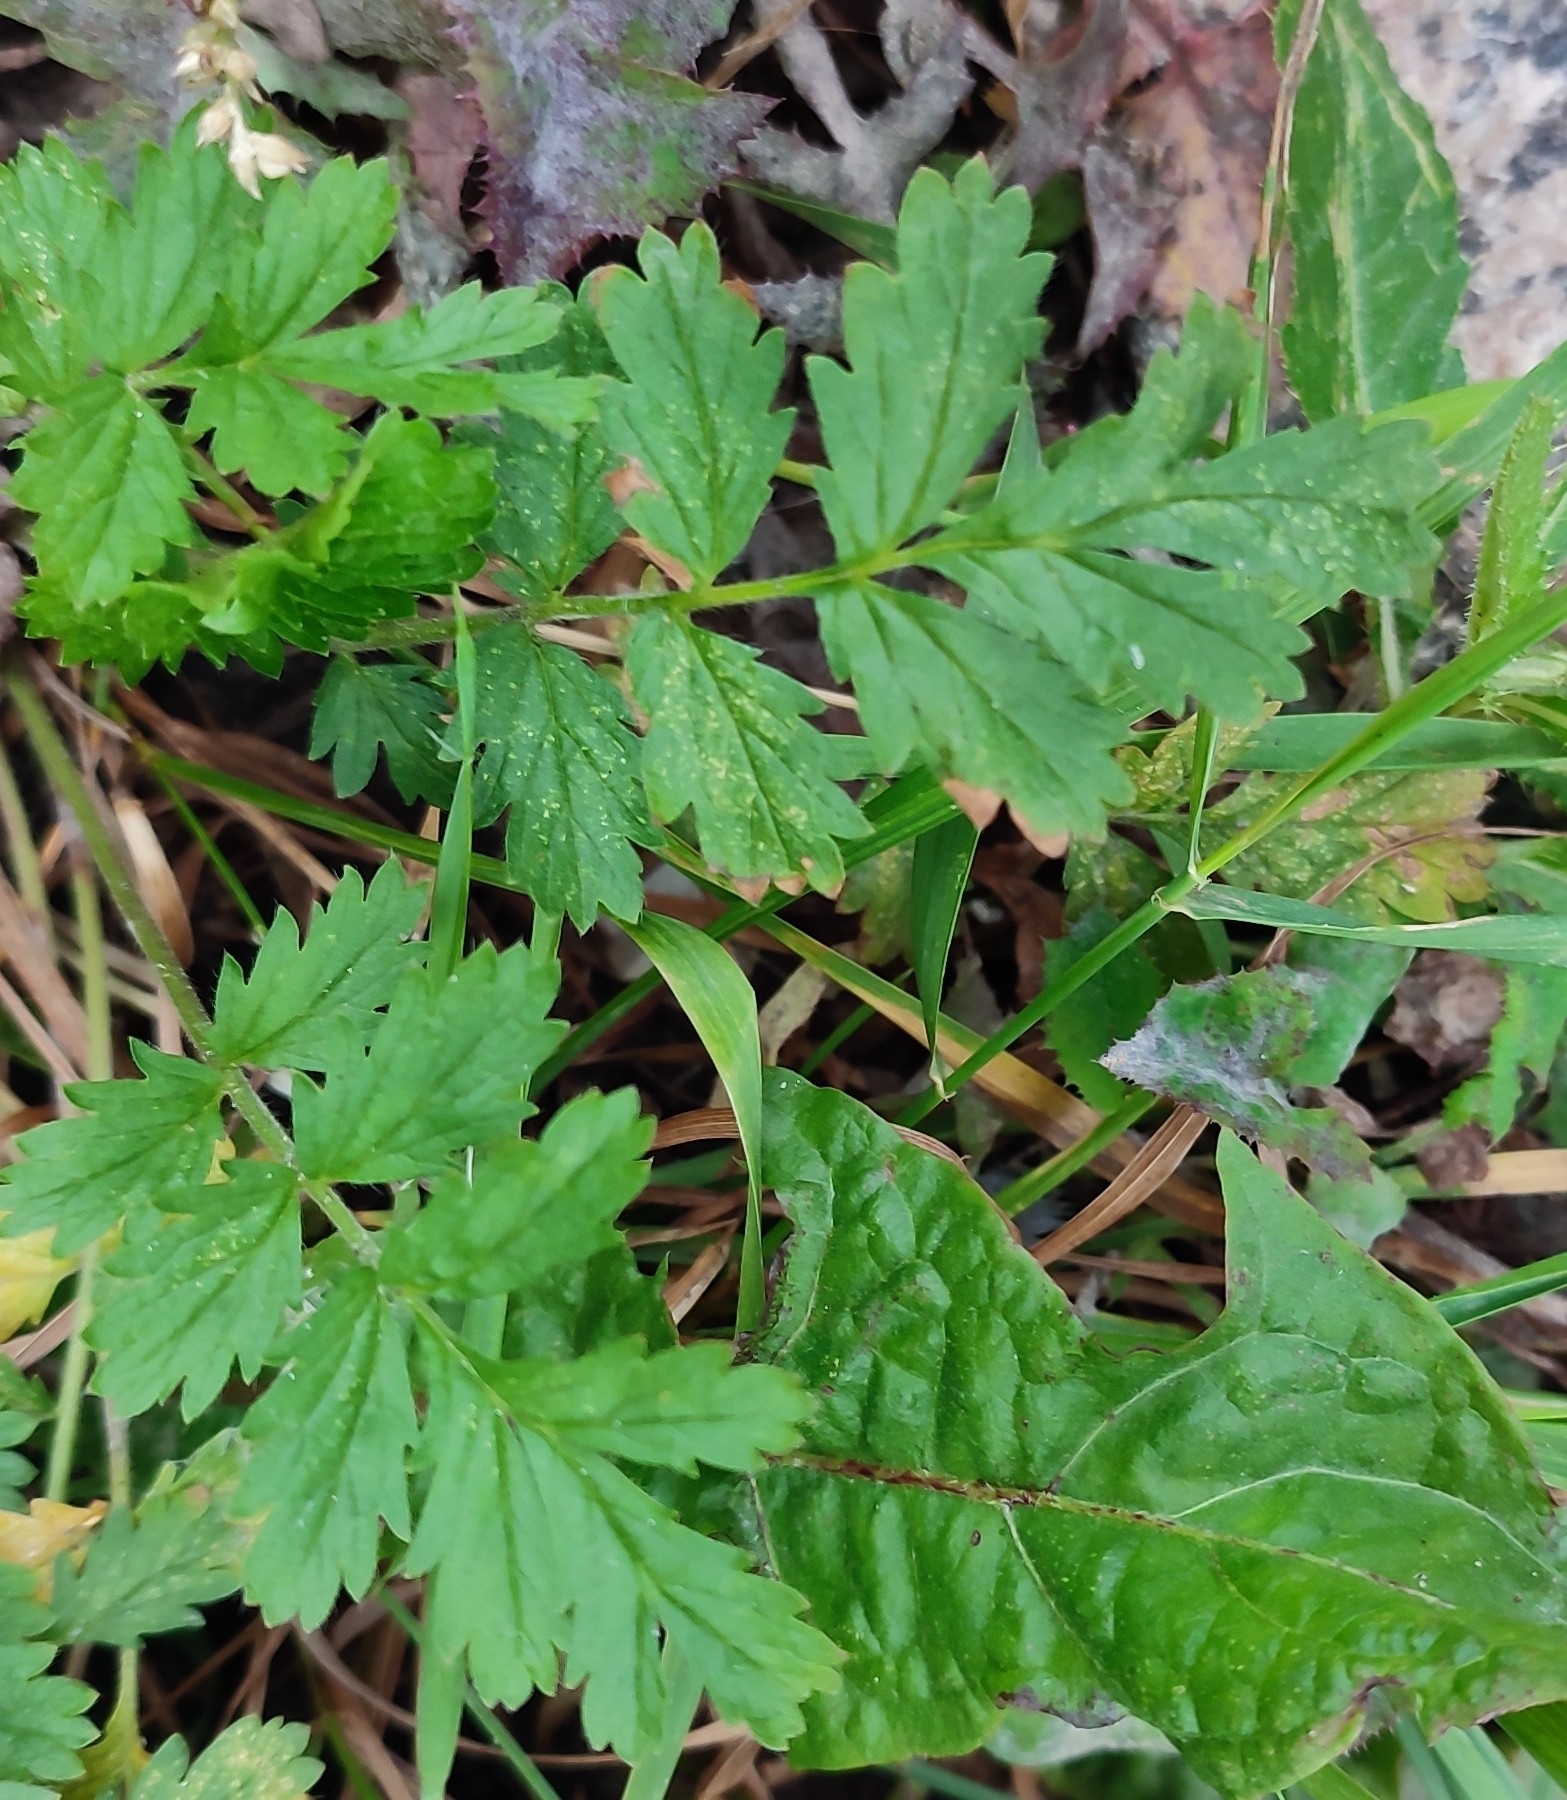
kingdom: Plantae
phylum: Tracheophyta
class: Magnoliopsida
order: Rosales
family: Rosaceae
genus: Potentilla
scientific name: Potentilla supina
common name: Prostrate cinquefoil
